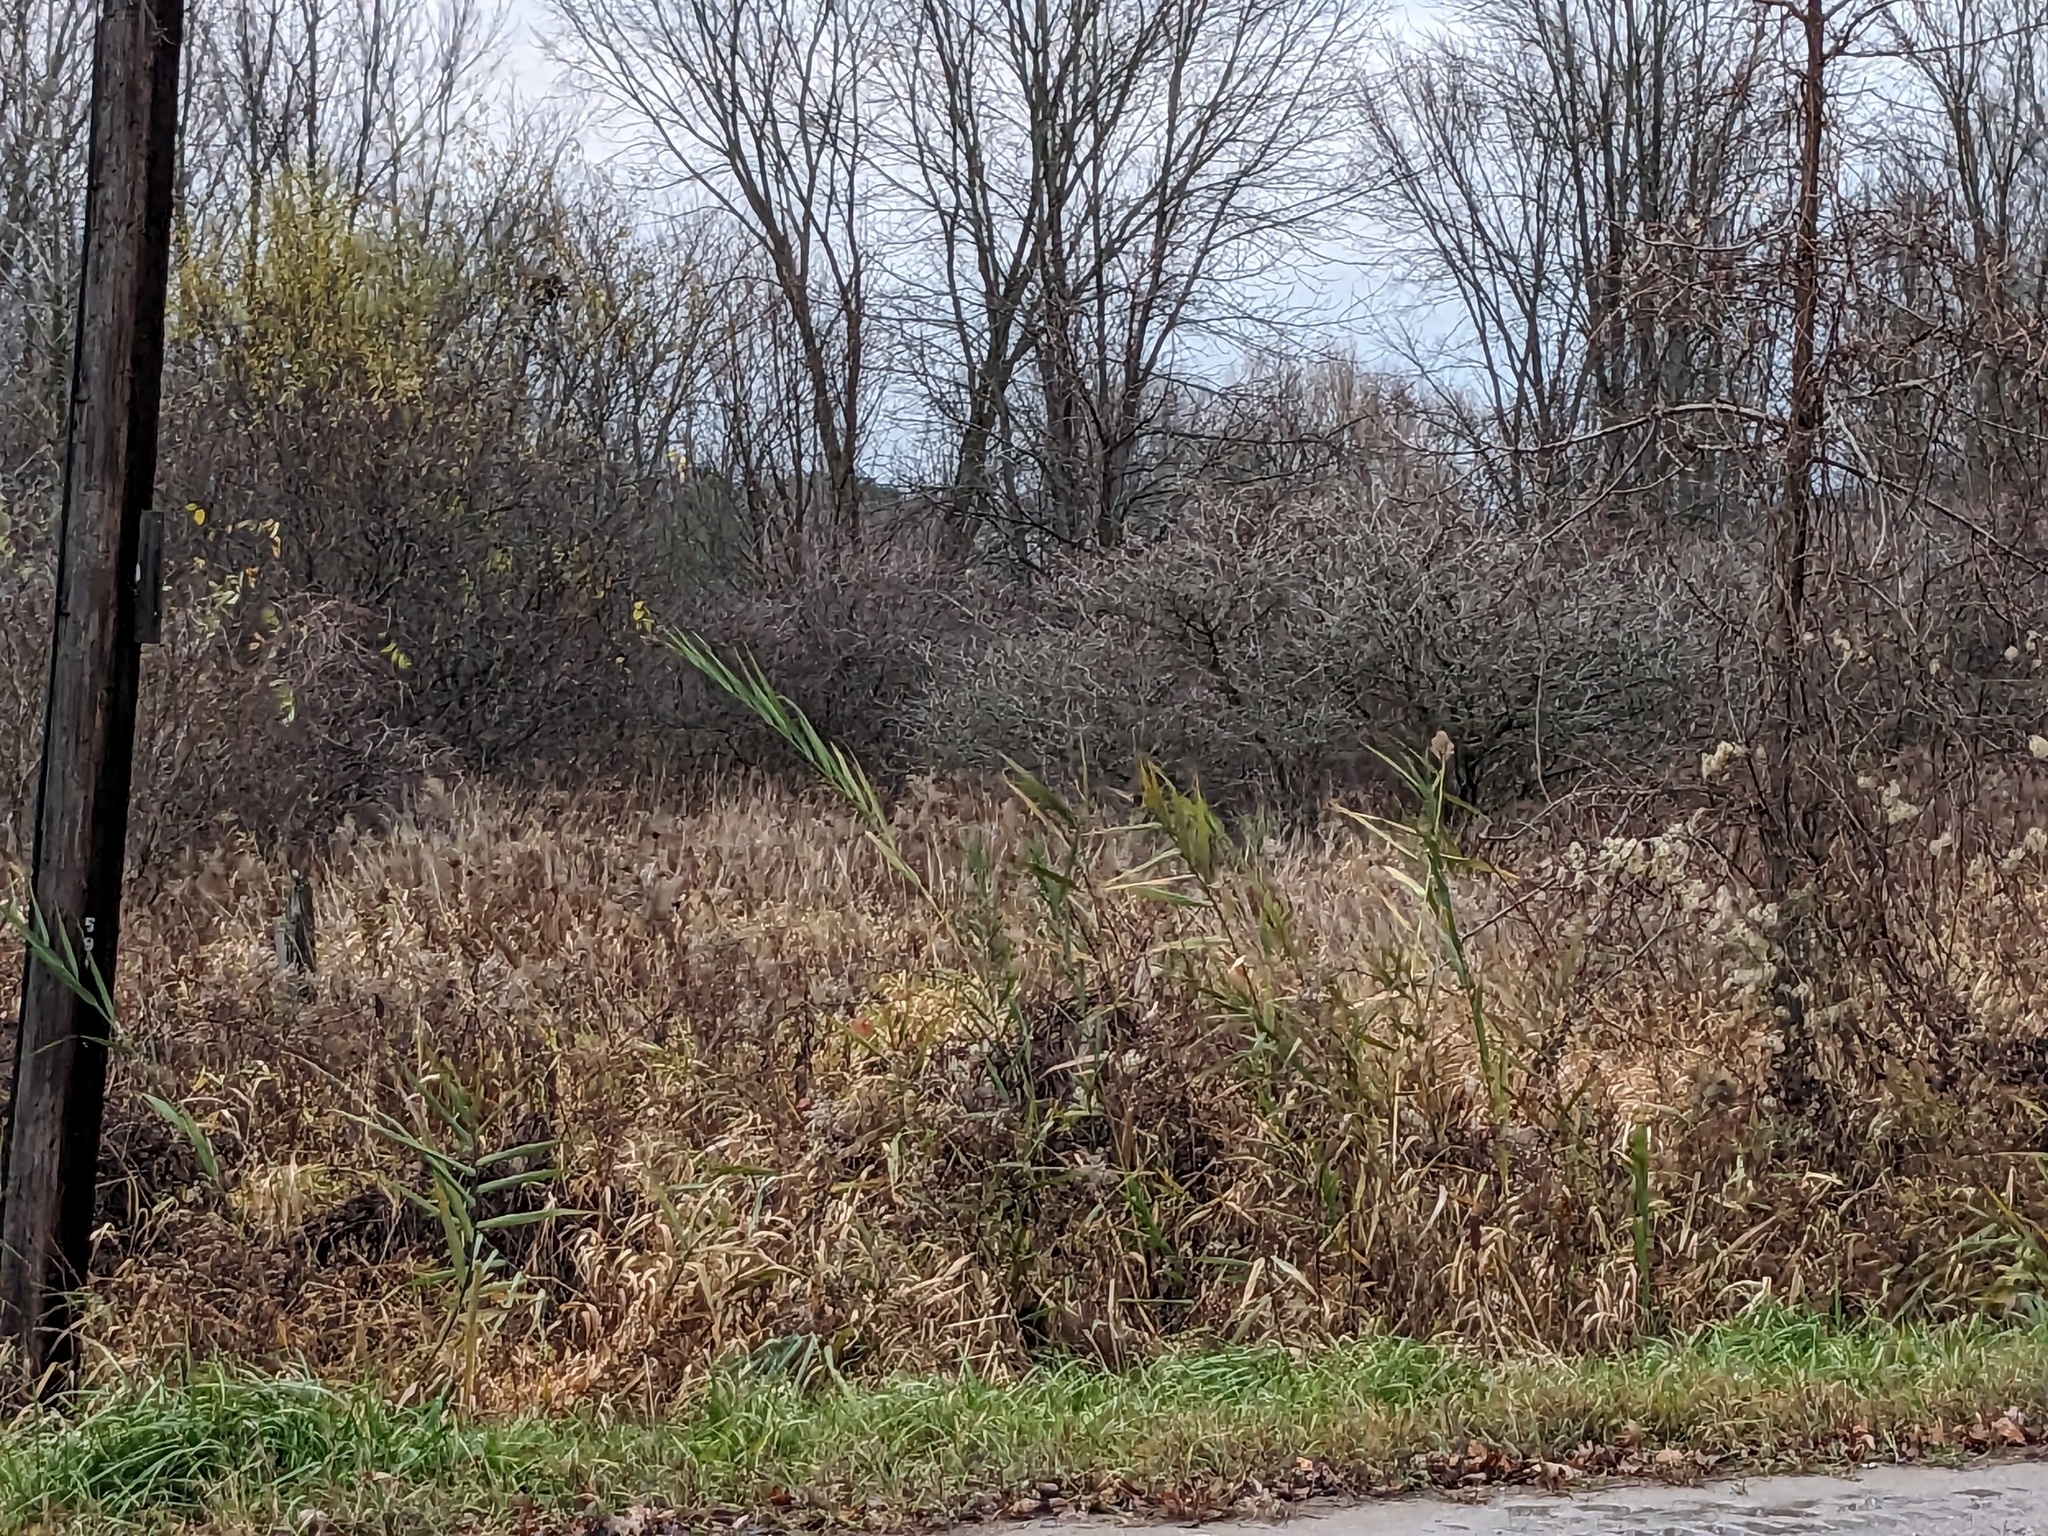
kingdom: Plantae
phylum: Tracheophyta
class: Liliopsida
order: Poales
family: Poaceae
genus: Phragmites
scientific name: Phragmites australis
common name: Common reed
